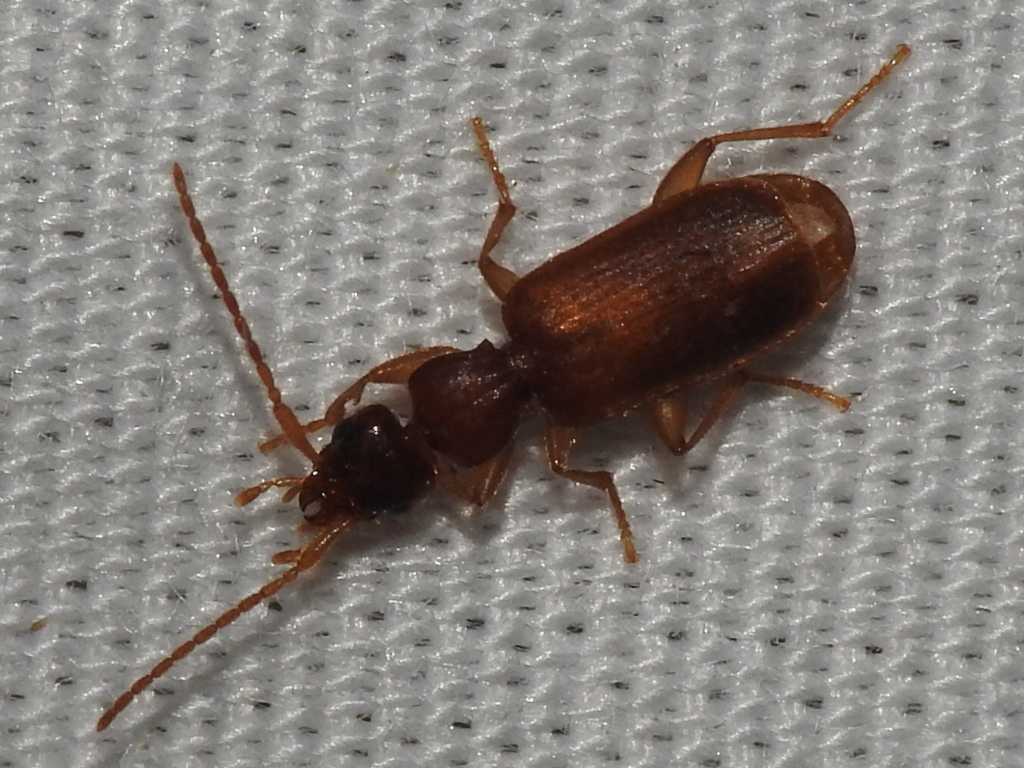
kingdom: Animalia
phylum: Arthropoda
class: Insecta
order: Coleoptera
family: Carabidae
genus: Zuphioides
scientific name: Zuphioides mexicanum
